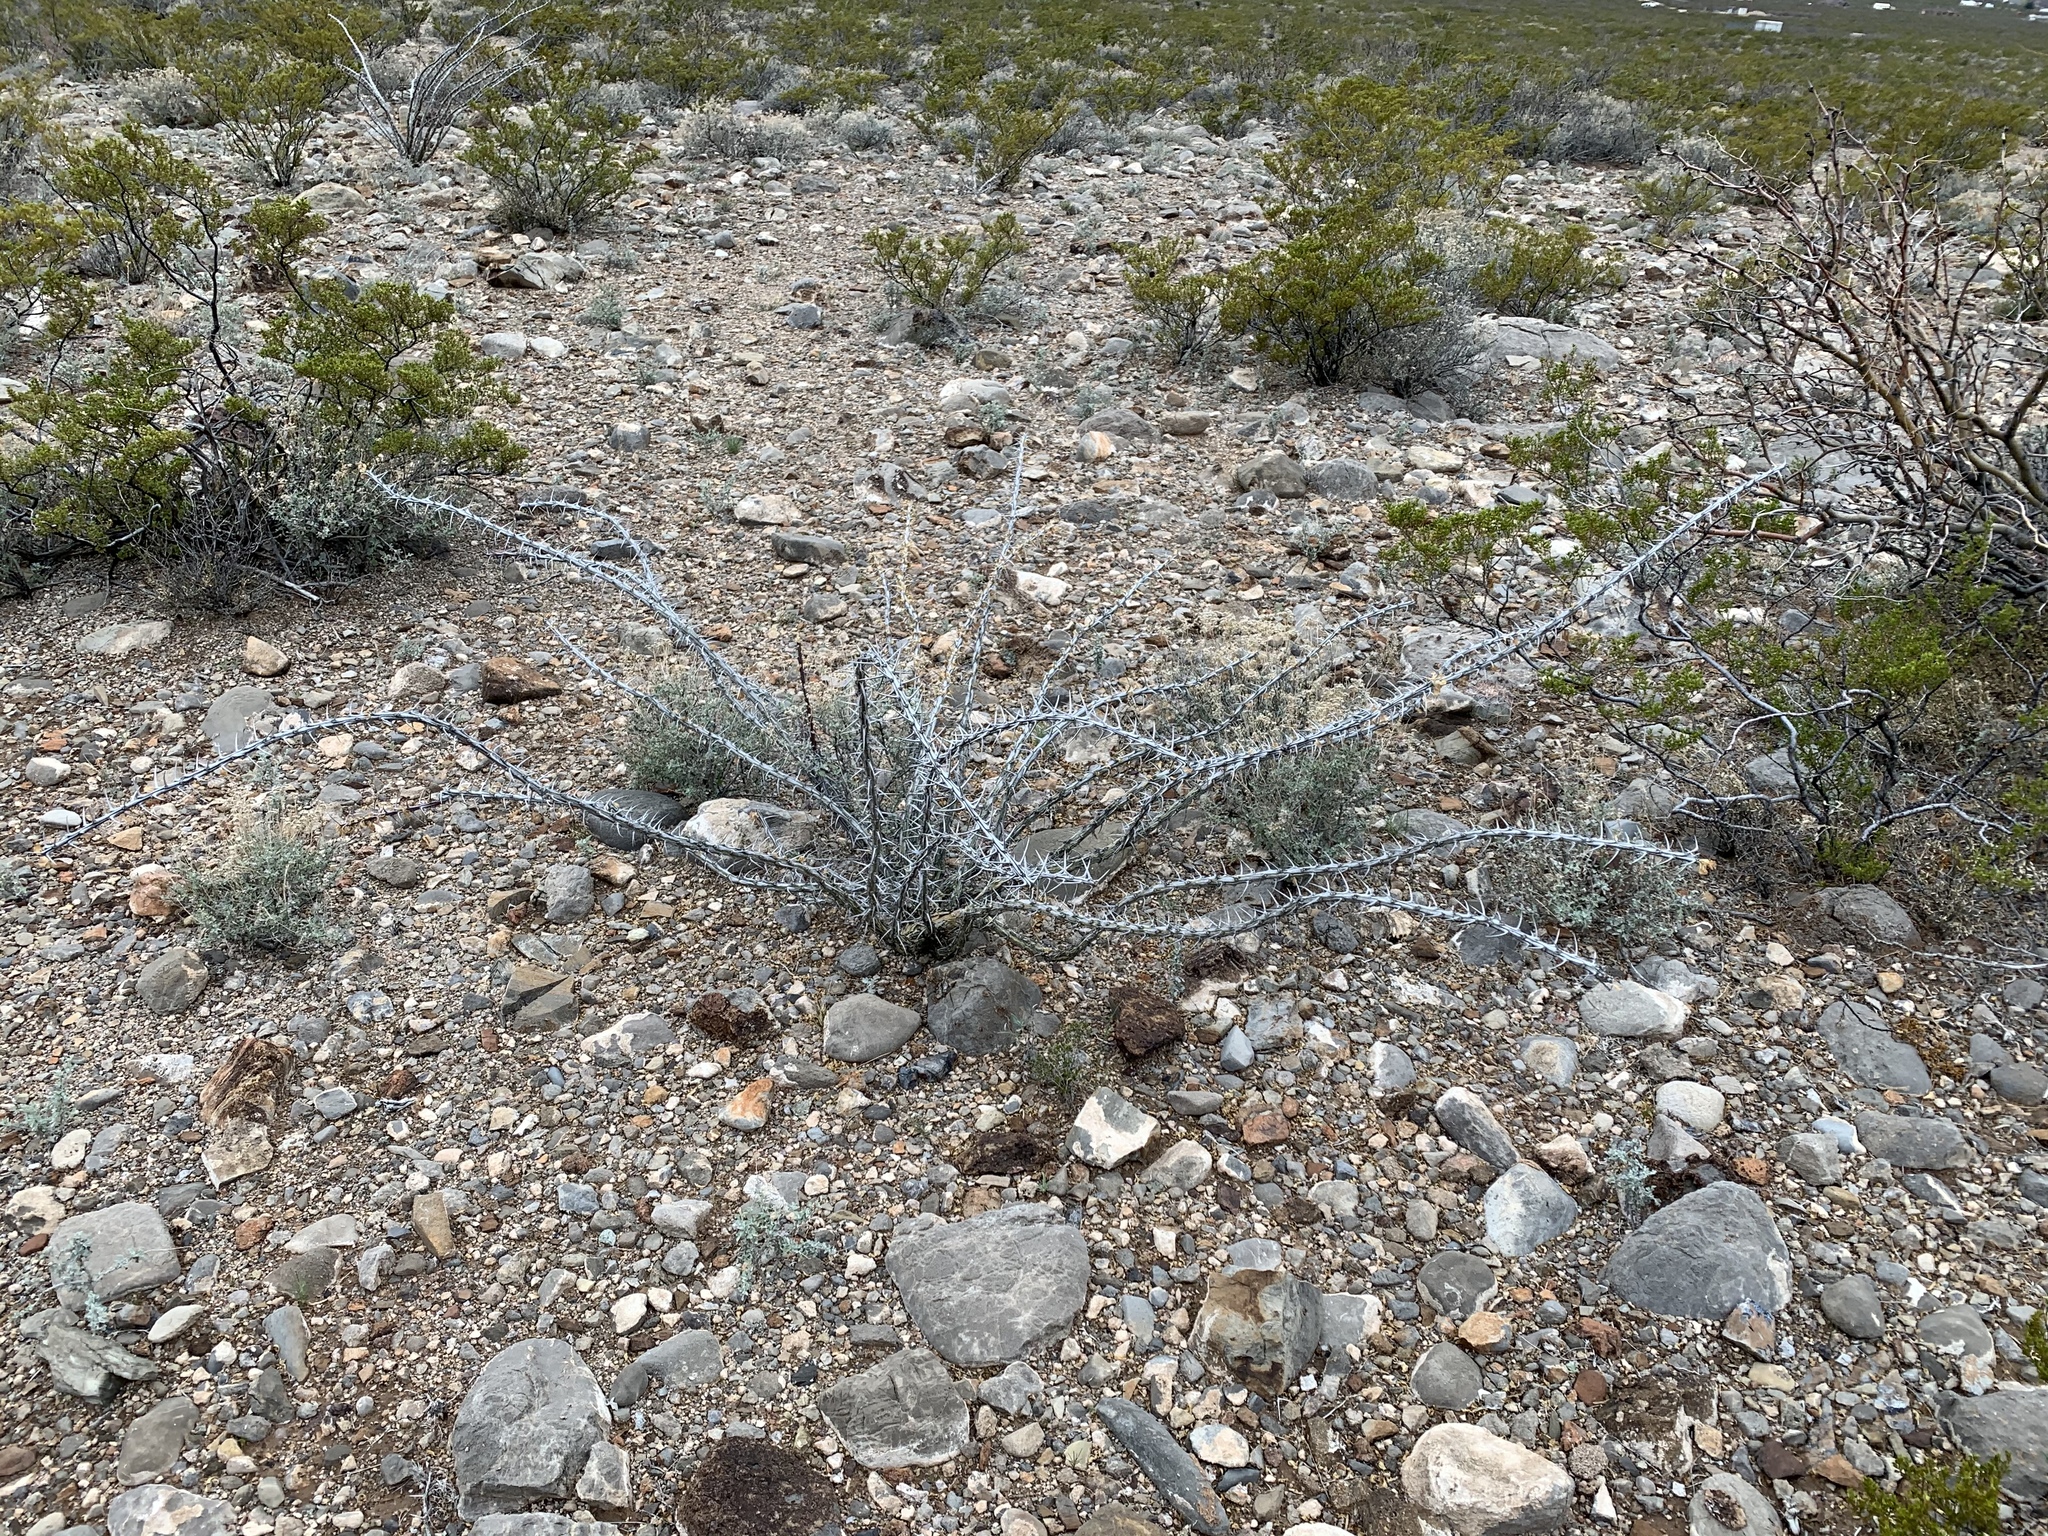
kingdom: Plantae
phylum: Tracheophyta
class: Magnoliopsida
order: Ericales
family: Fouquieriaceae
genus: Fouquieria
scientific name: Fouquieria splendens
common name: Vine-cactus
